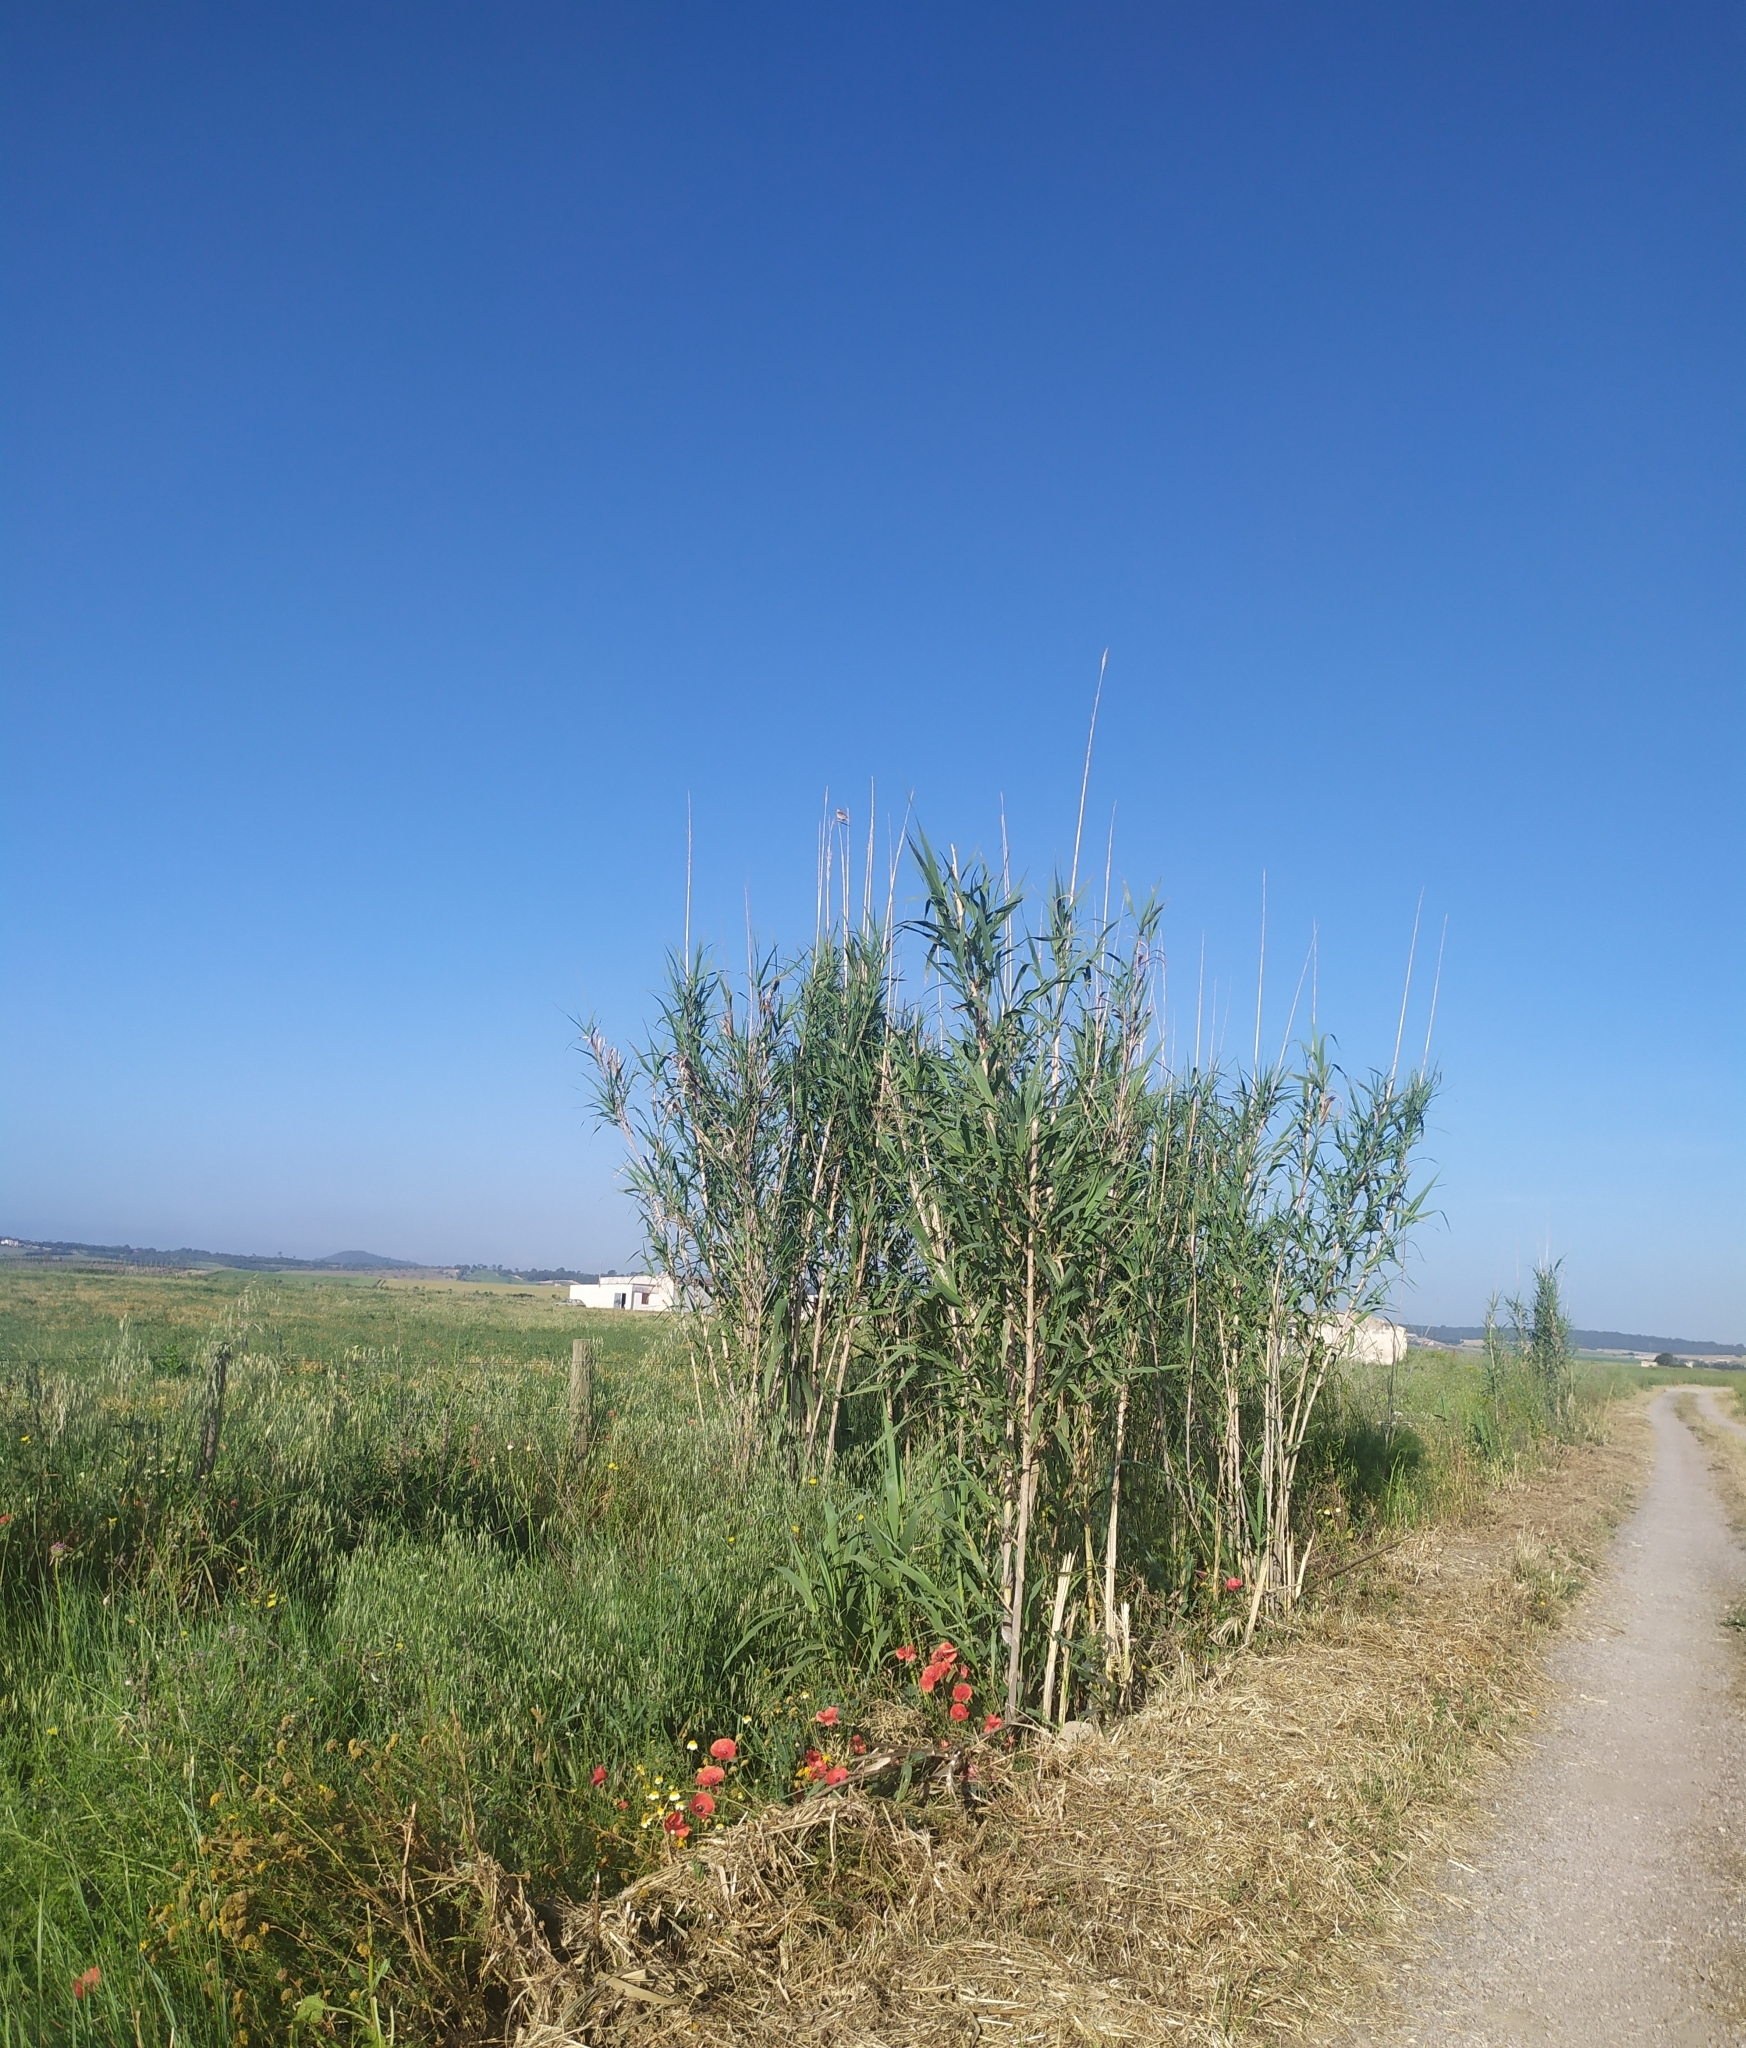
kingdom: Plantae
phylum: Tracheophyta
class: Liliopsida
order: Poales
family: Poaceae
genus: Arundo
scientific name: Arundo donax
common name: Giant reed
